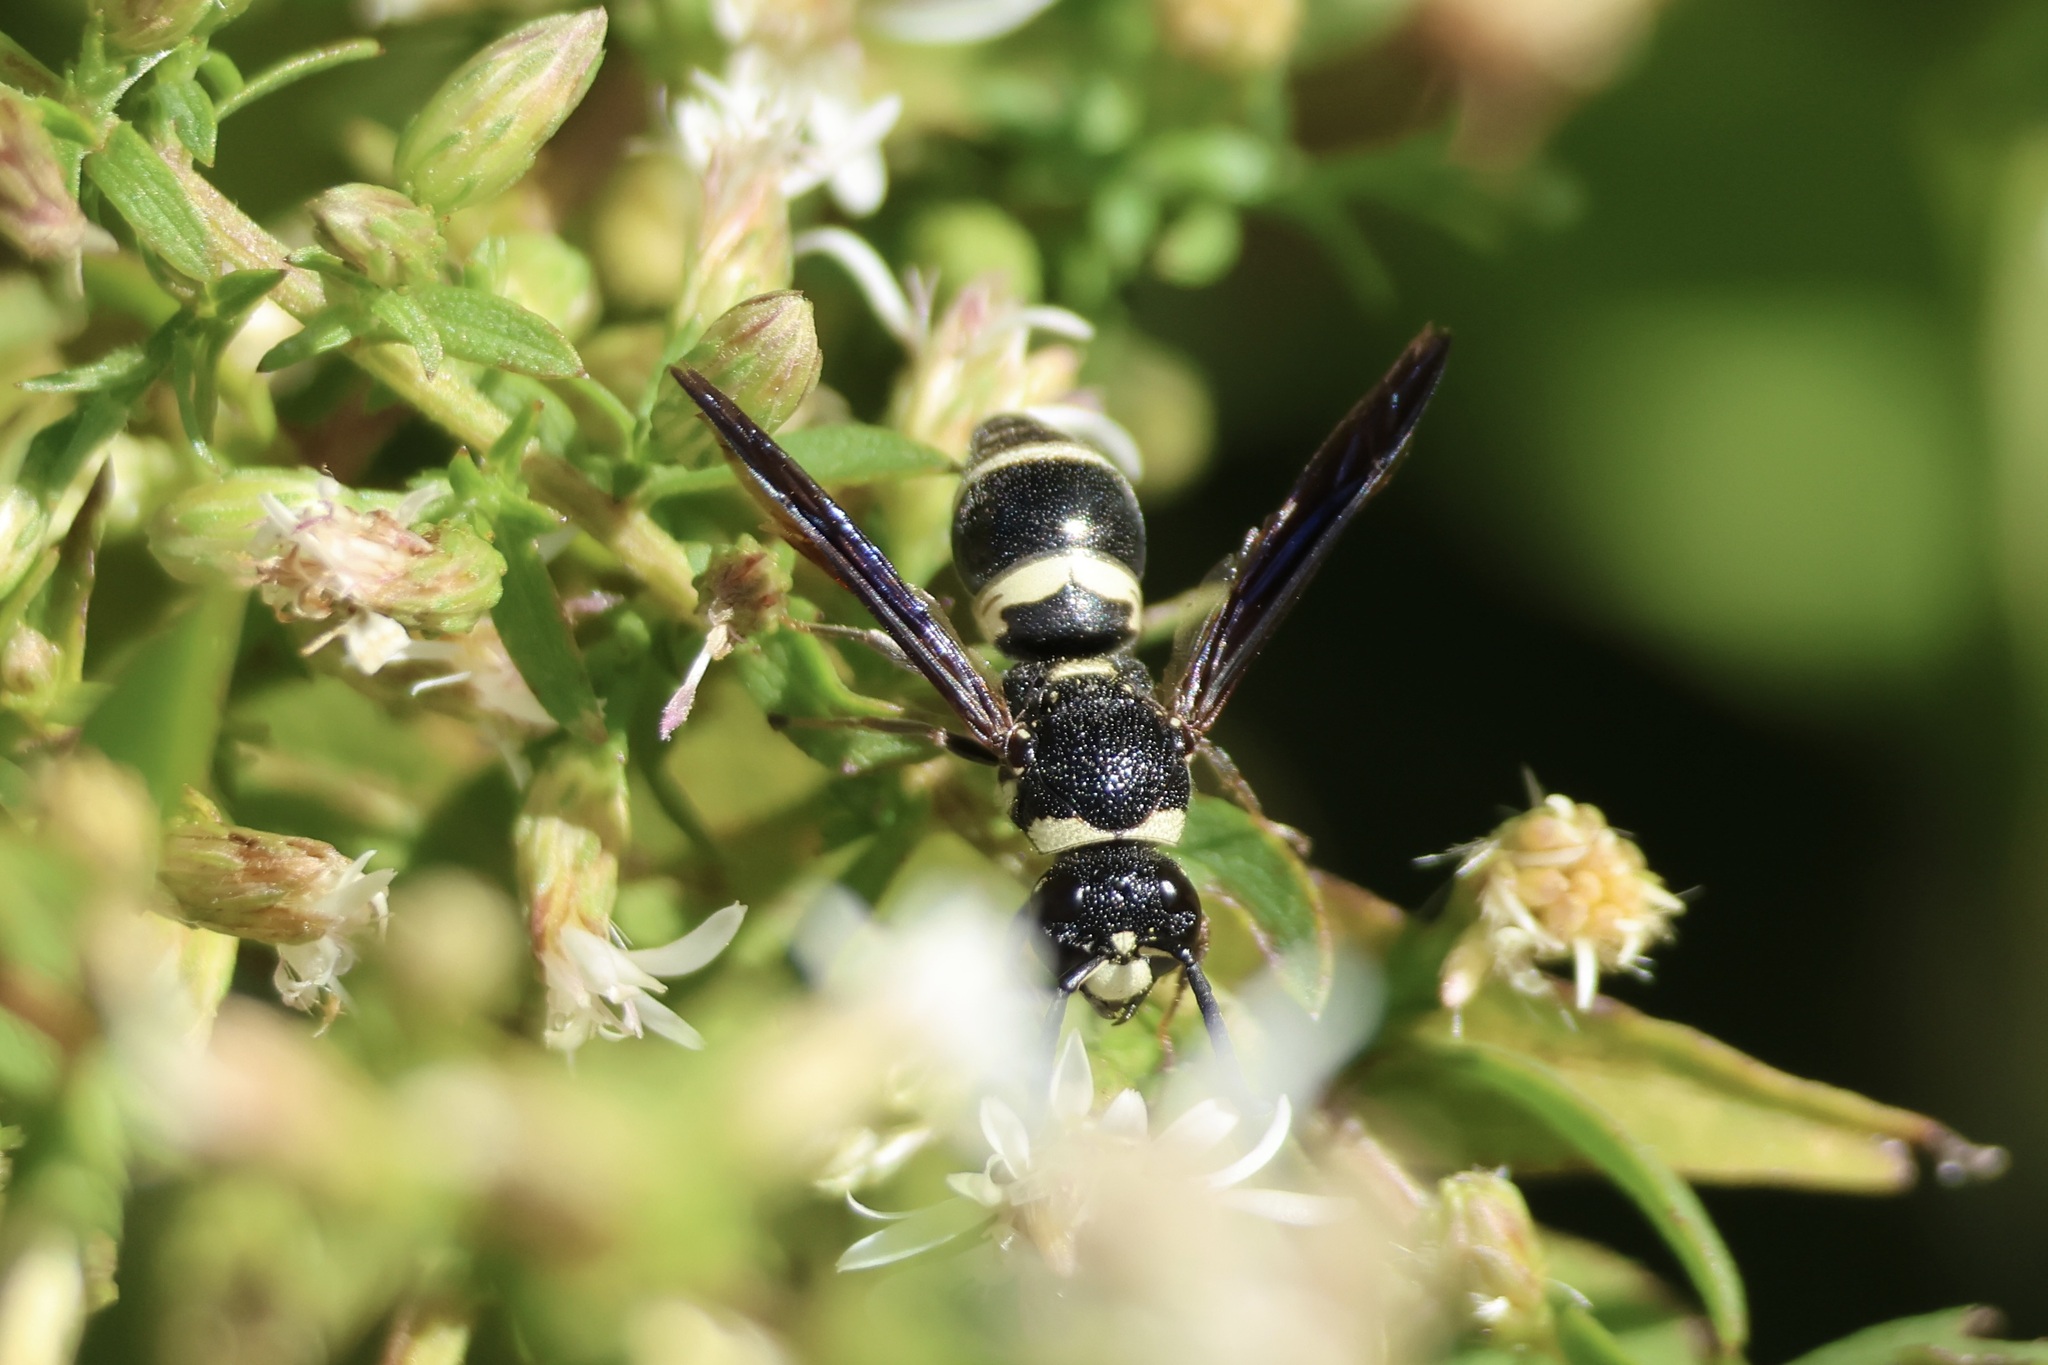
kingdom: Animalia
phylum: Arthropoda
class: Insecta
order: Hymenoptera
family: Eumenidae
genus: Euodynerus
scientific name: Euodynerus megaera
